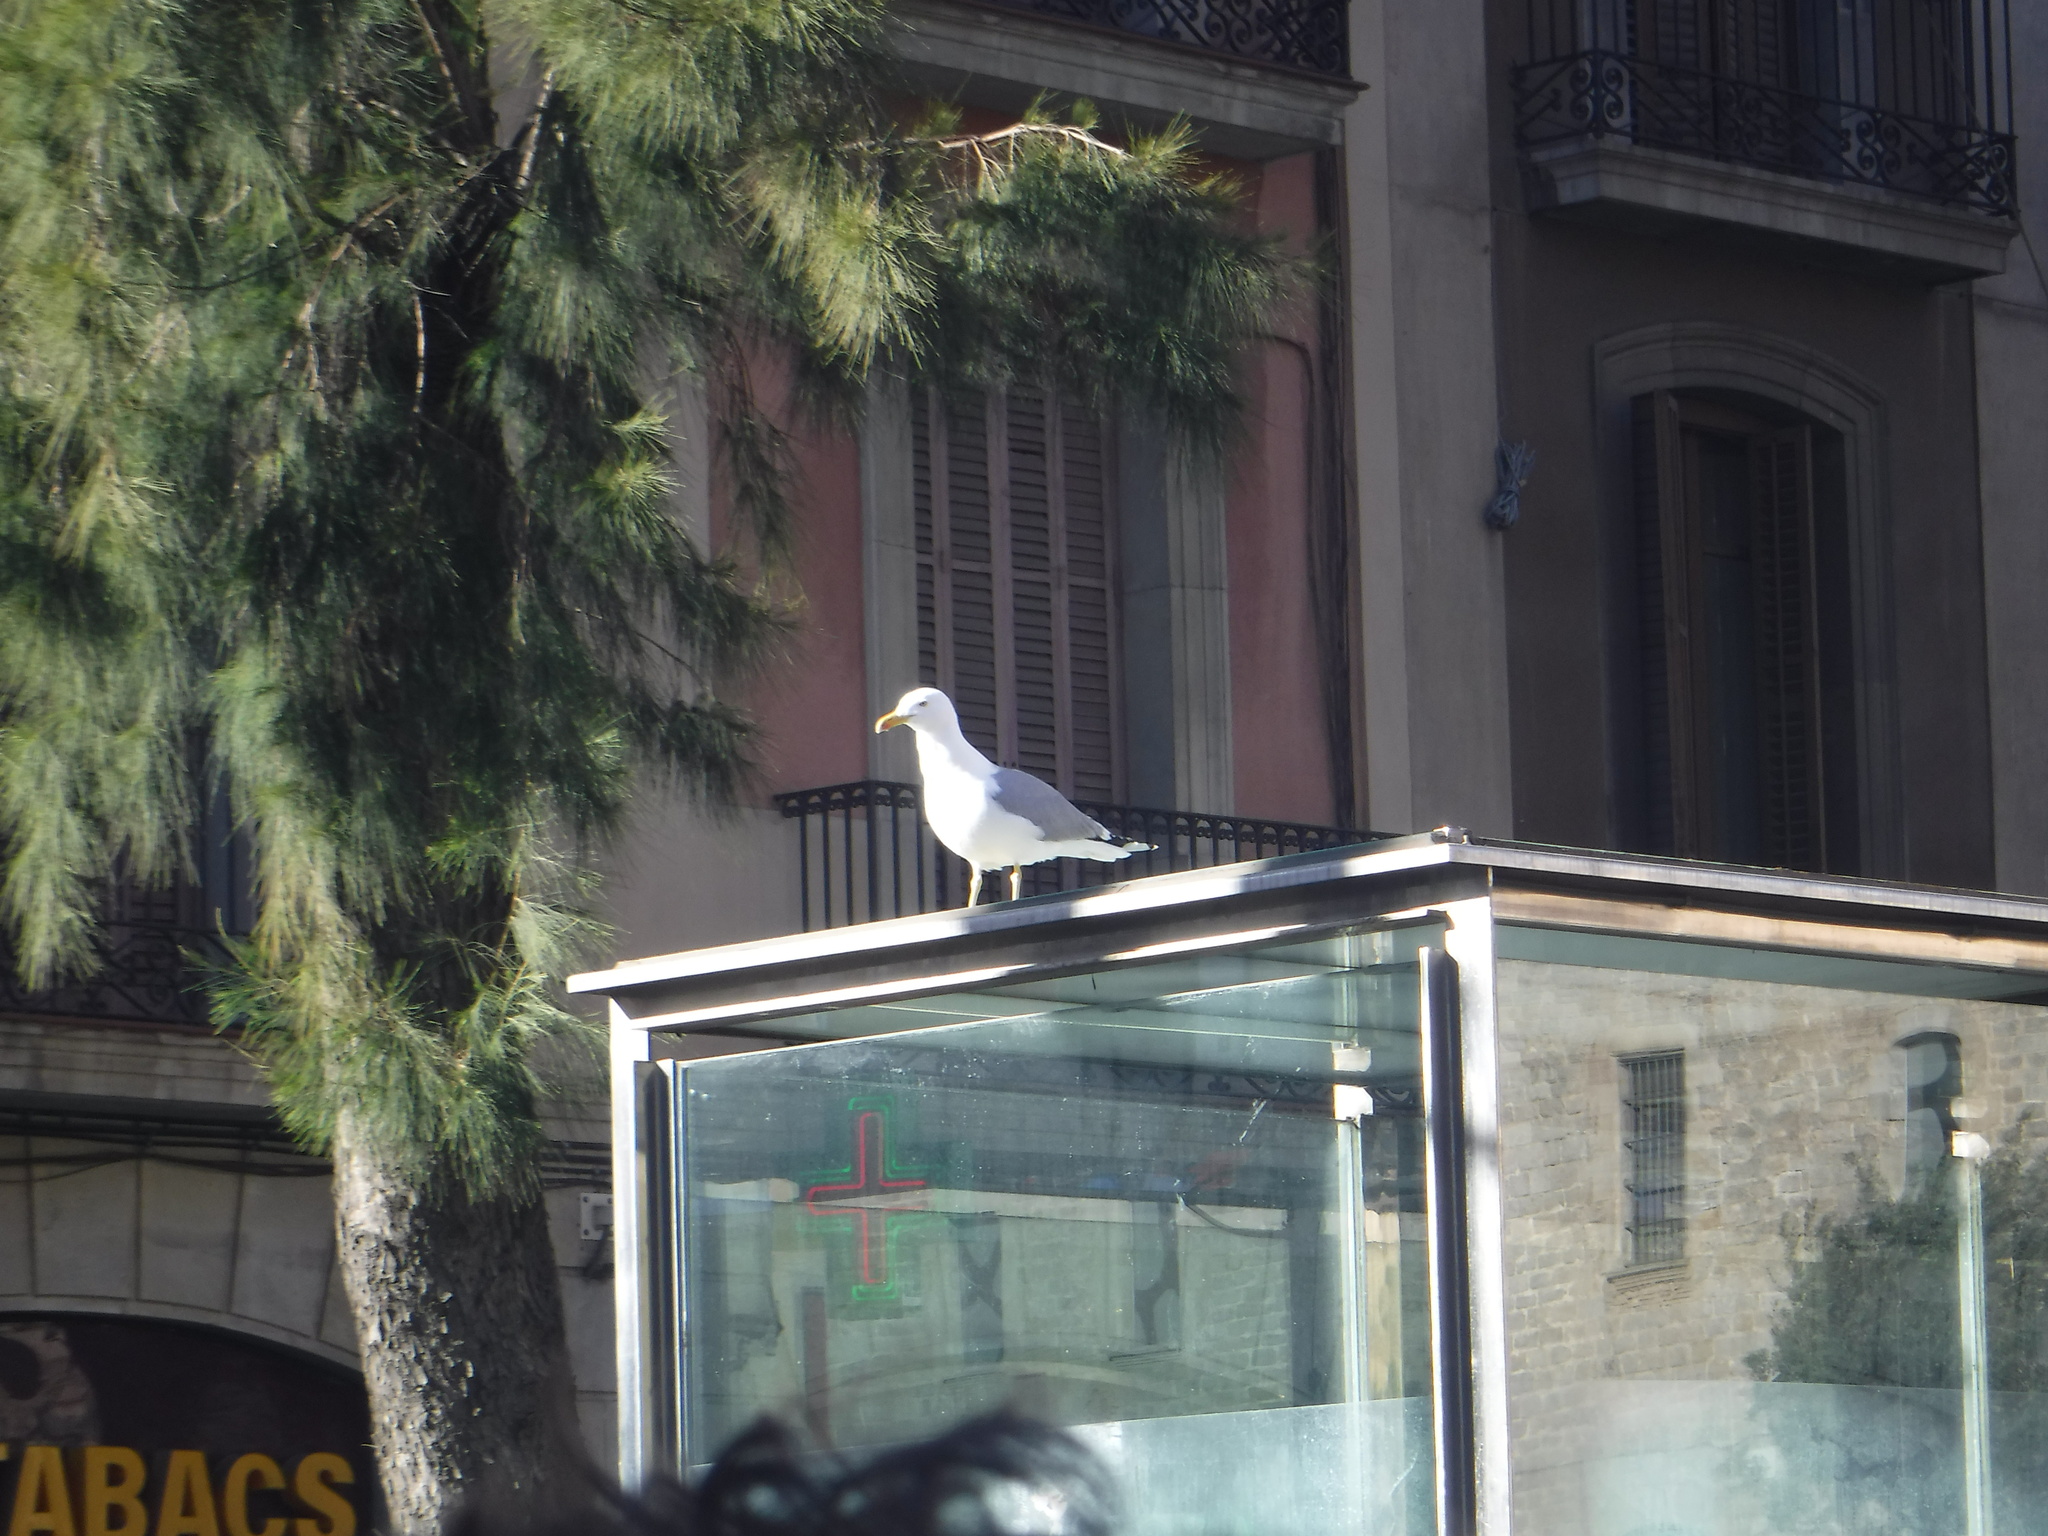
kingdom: Animalia
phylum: Chordata
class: Aves
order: Charadriiformes
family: Laridae
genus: Larus
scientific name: Larus michahellis
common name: Yellow-legged gull
